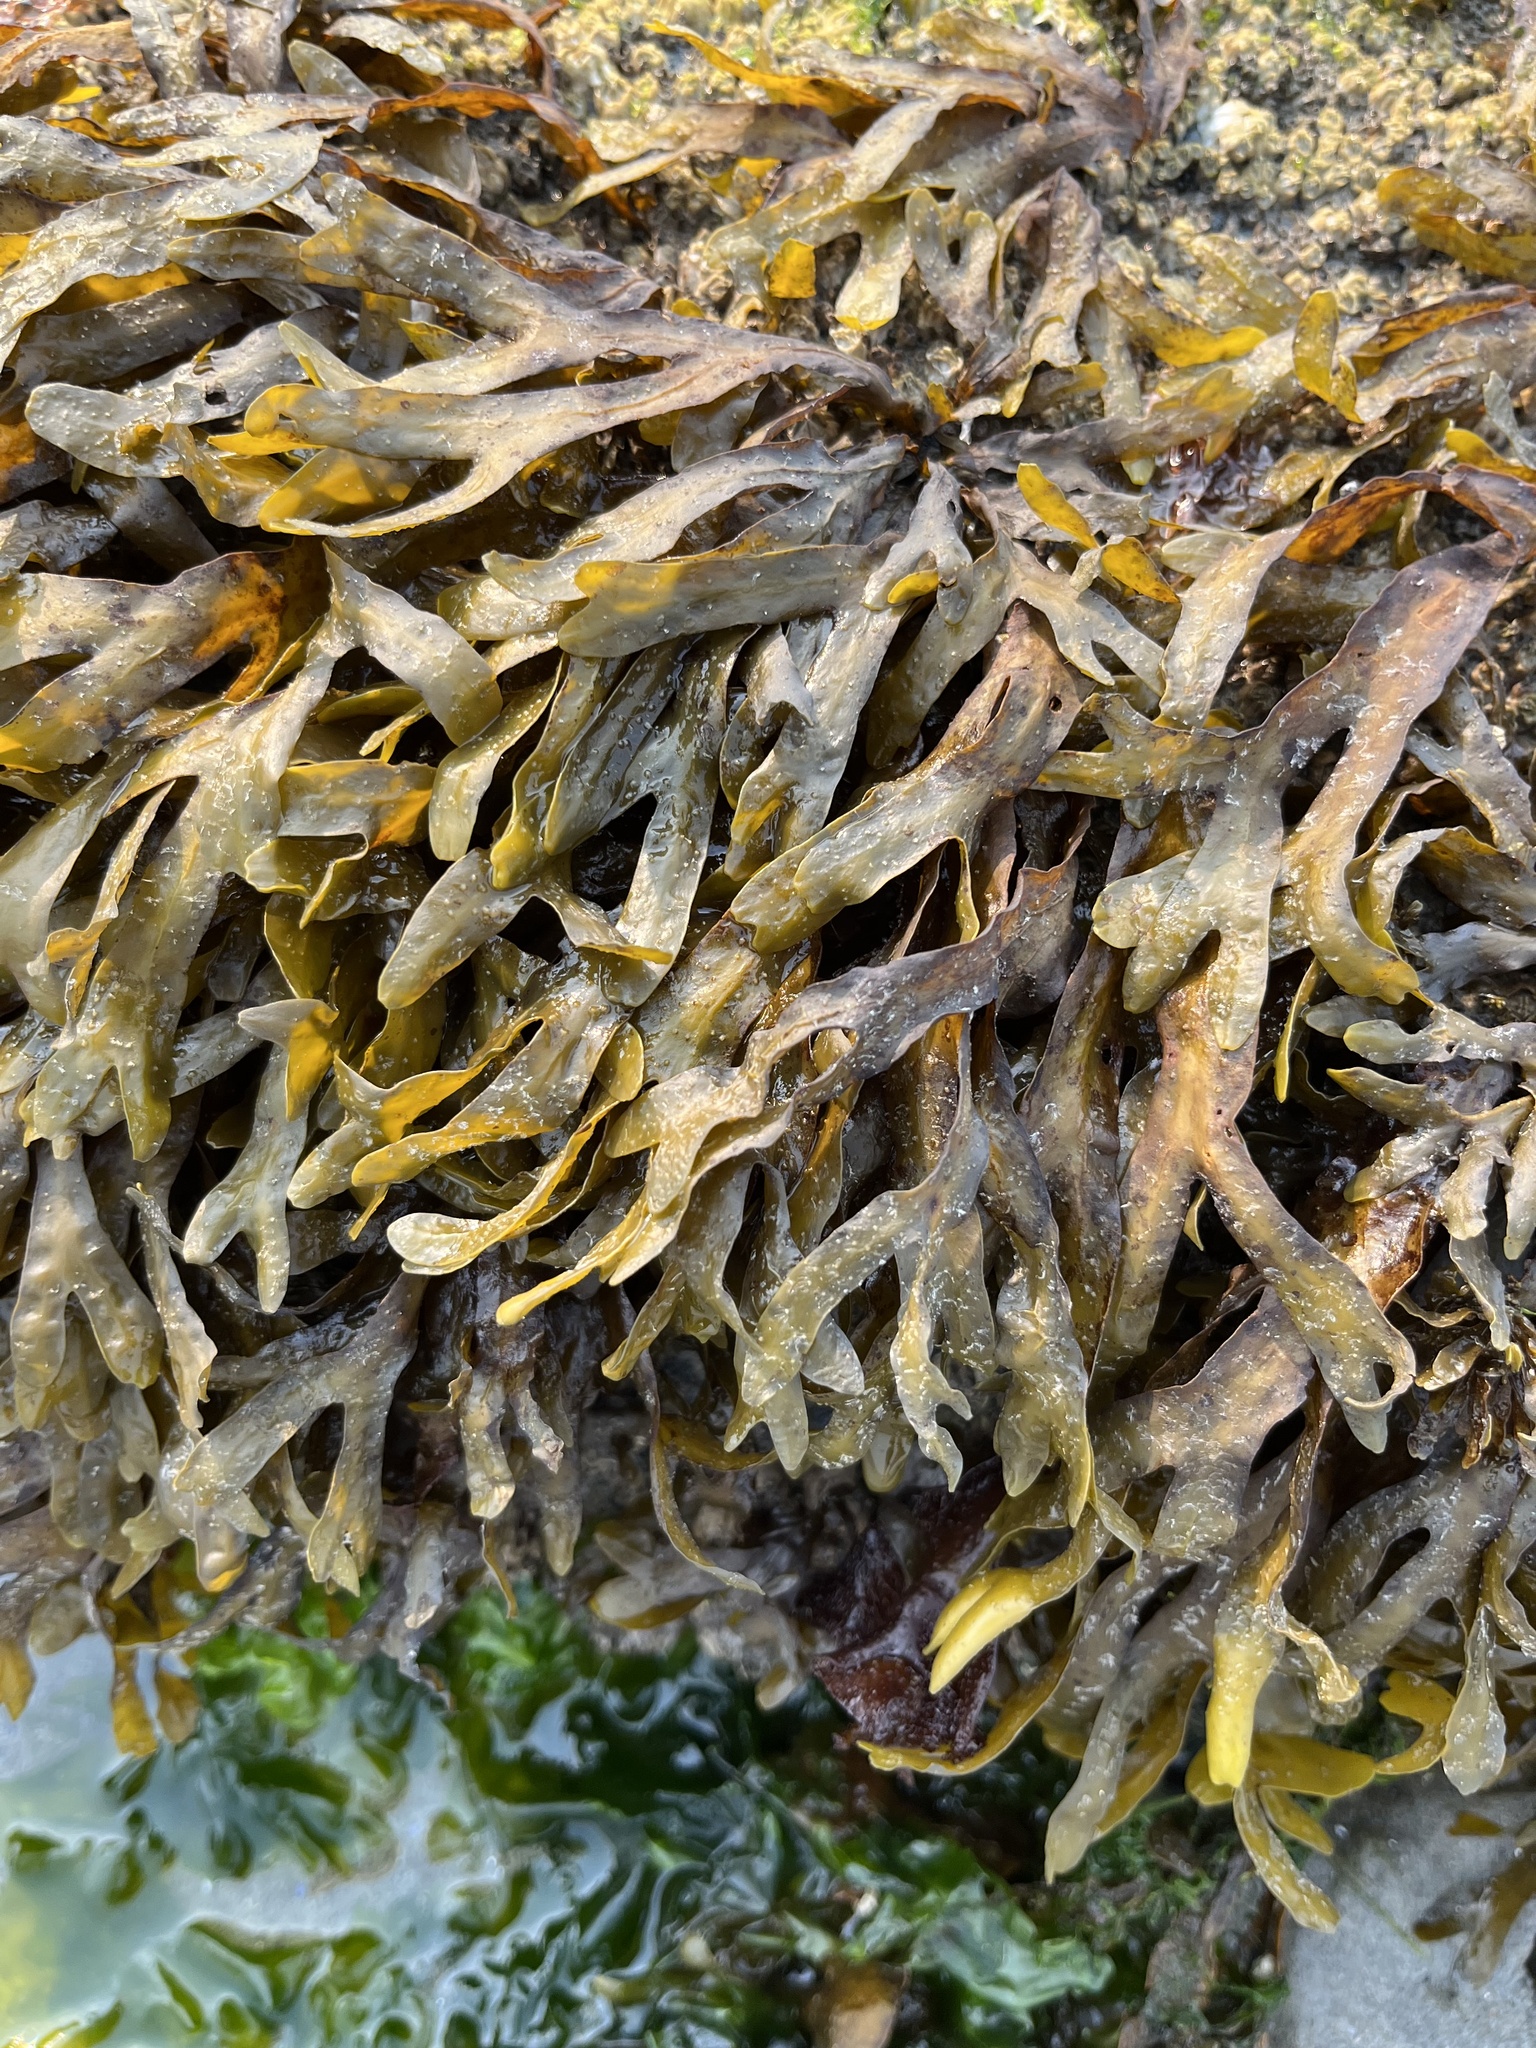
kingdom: Chromista
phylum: Ochrophyta
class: Phaeophyceae
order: Fucales
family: Fucaceae
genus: Fucus
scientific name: Fucus distichus
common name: Rockweed
